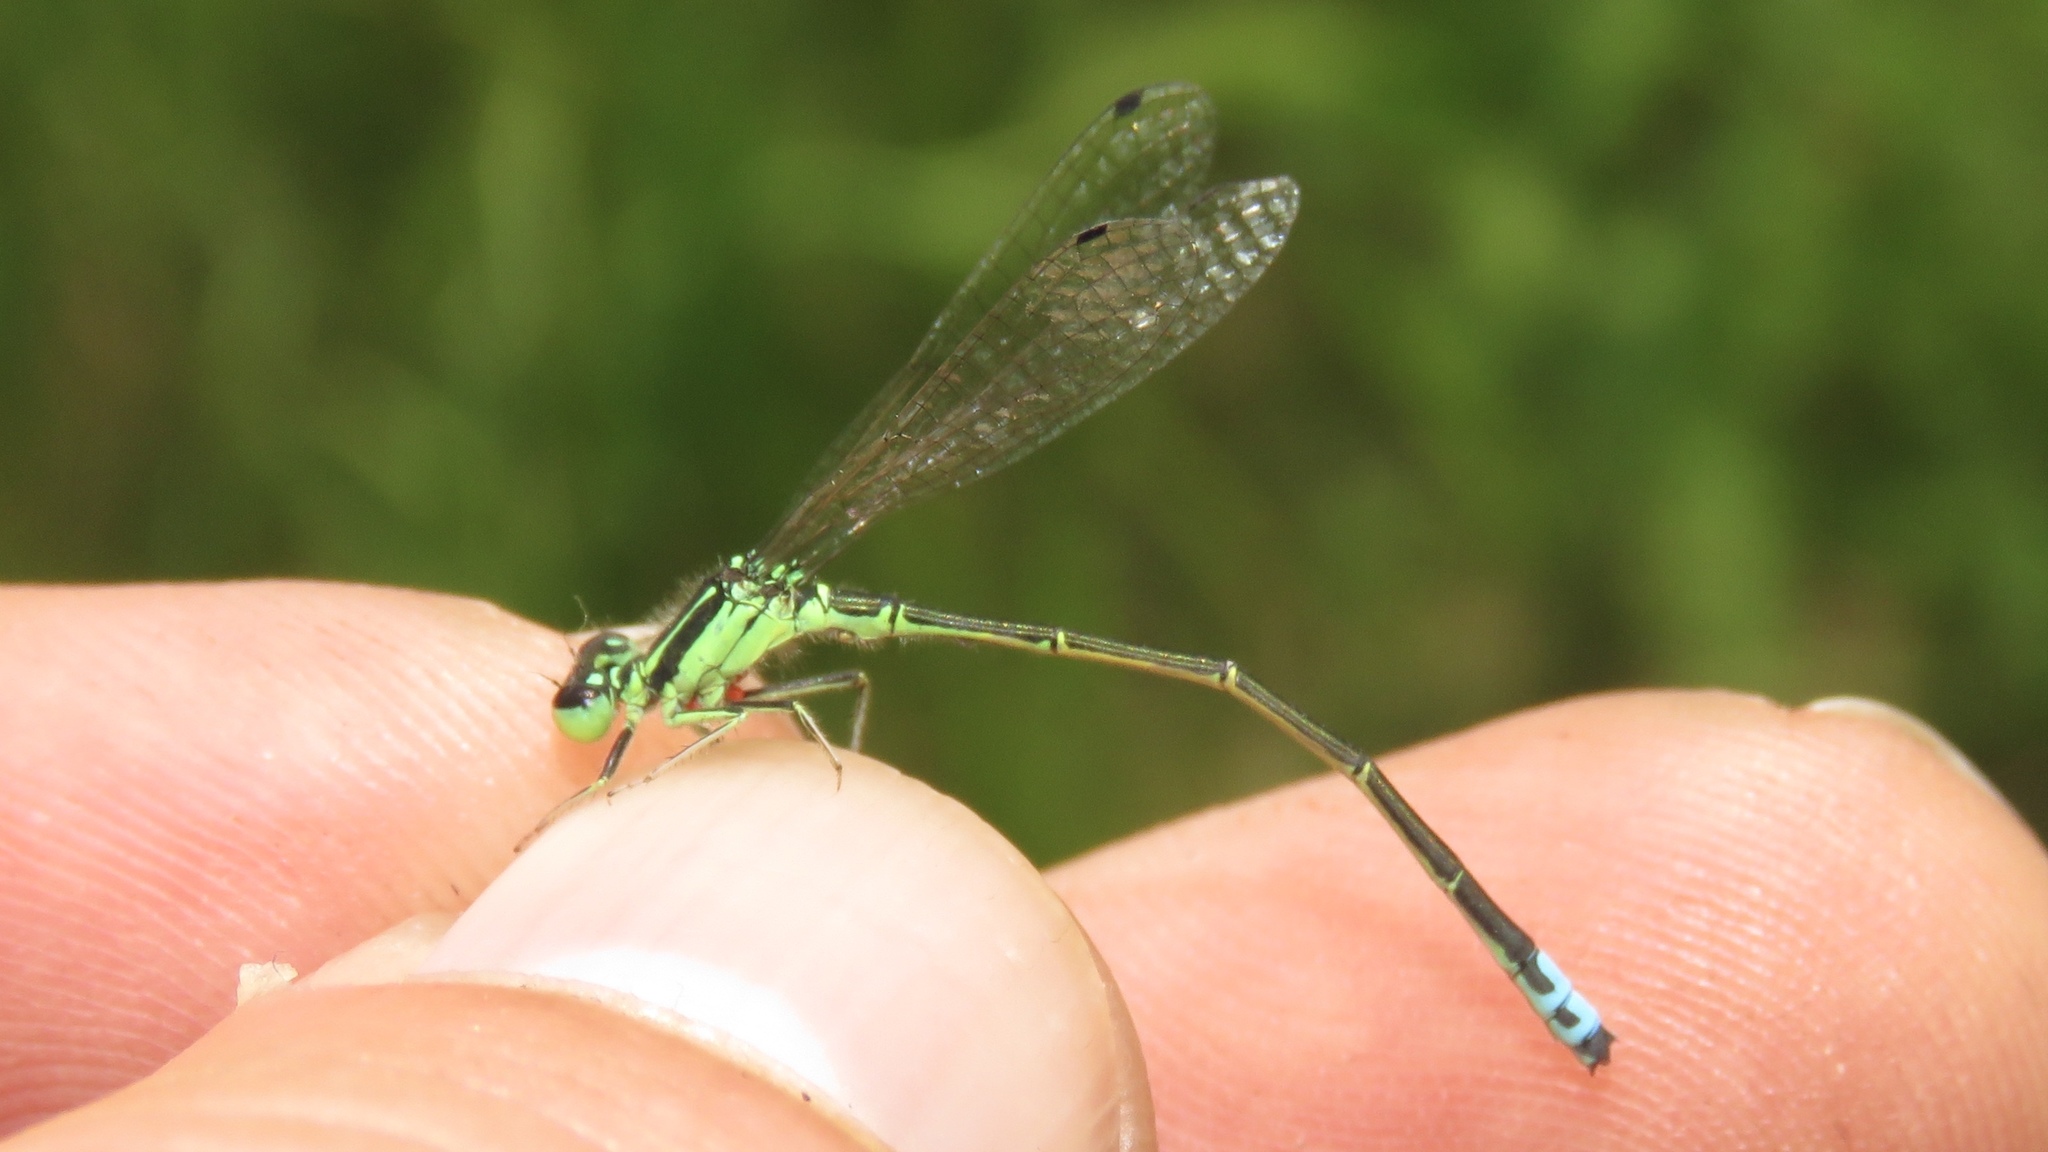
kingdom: Animalia
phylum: Arthropoda
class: Insecta
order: Odonata
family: Coenagrionidae
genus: Ischnura
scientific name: Ischnura verticalis
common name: Eastern forktail
